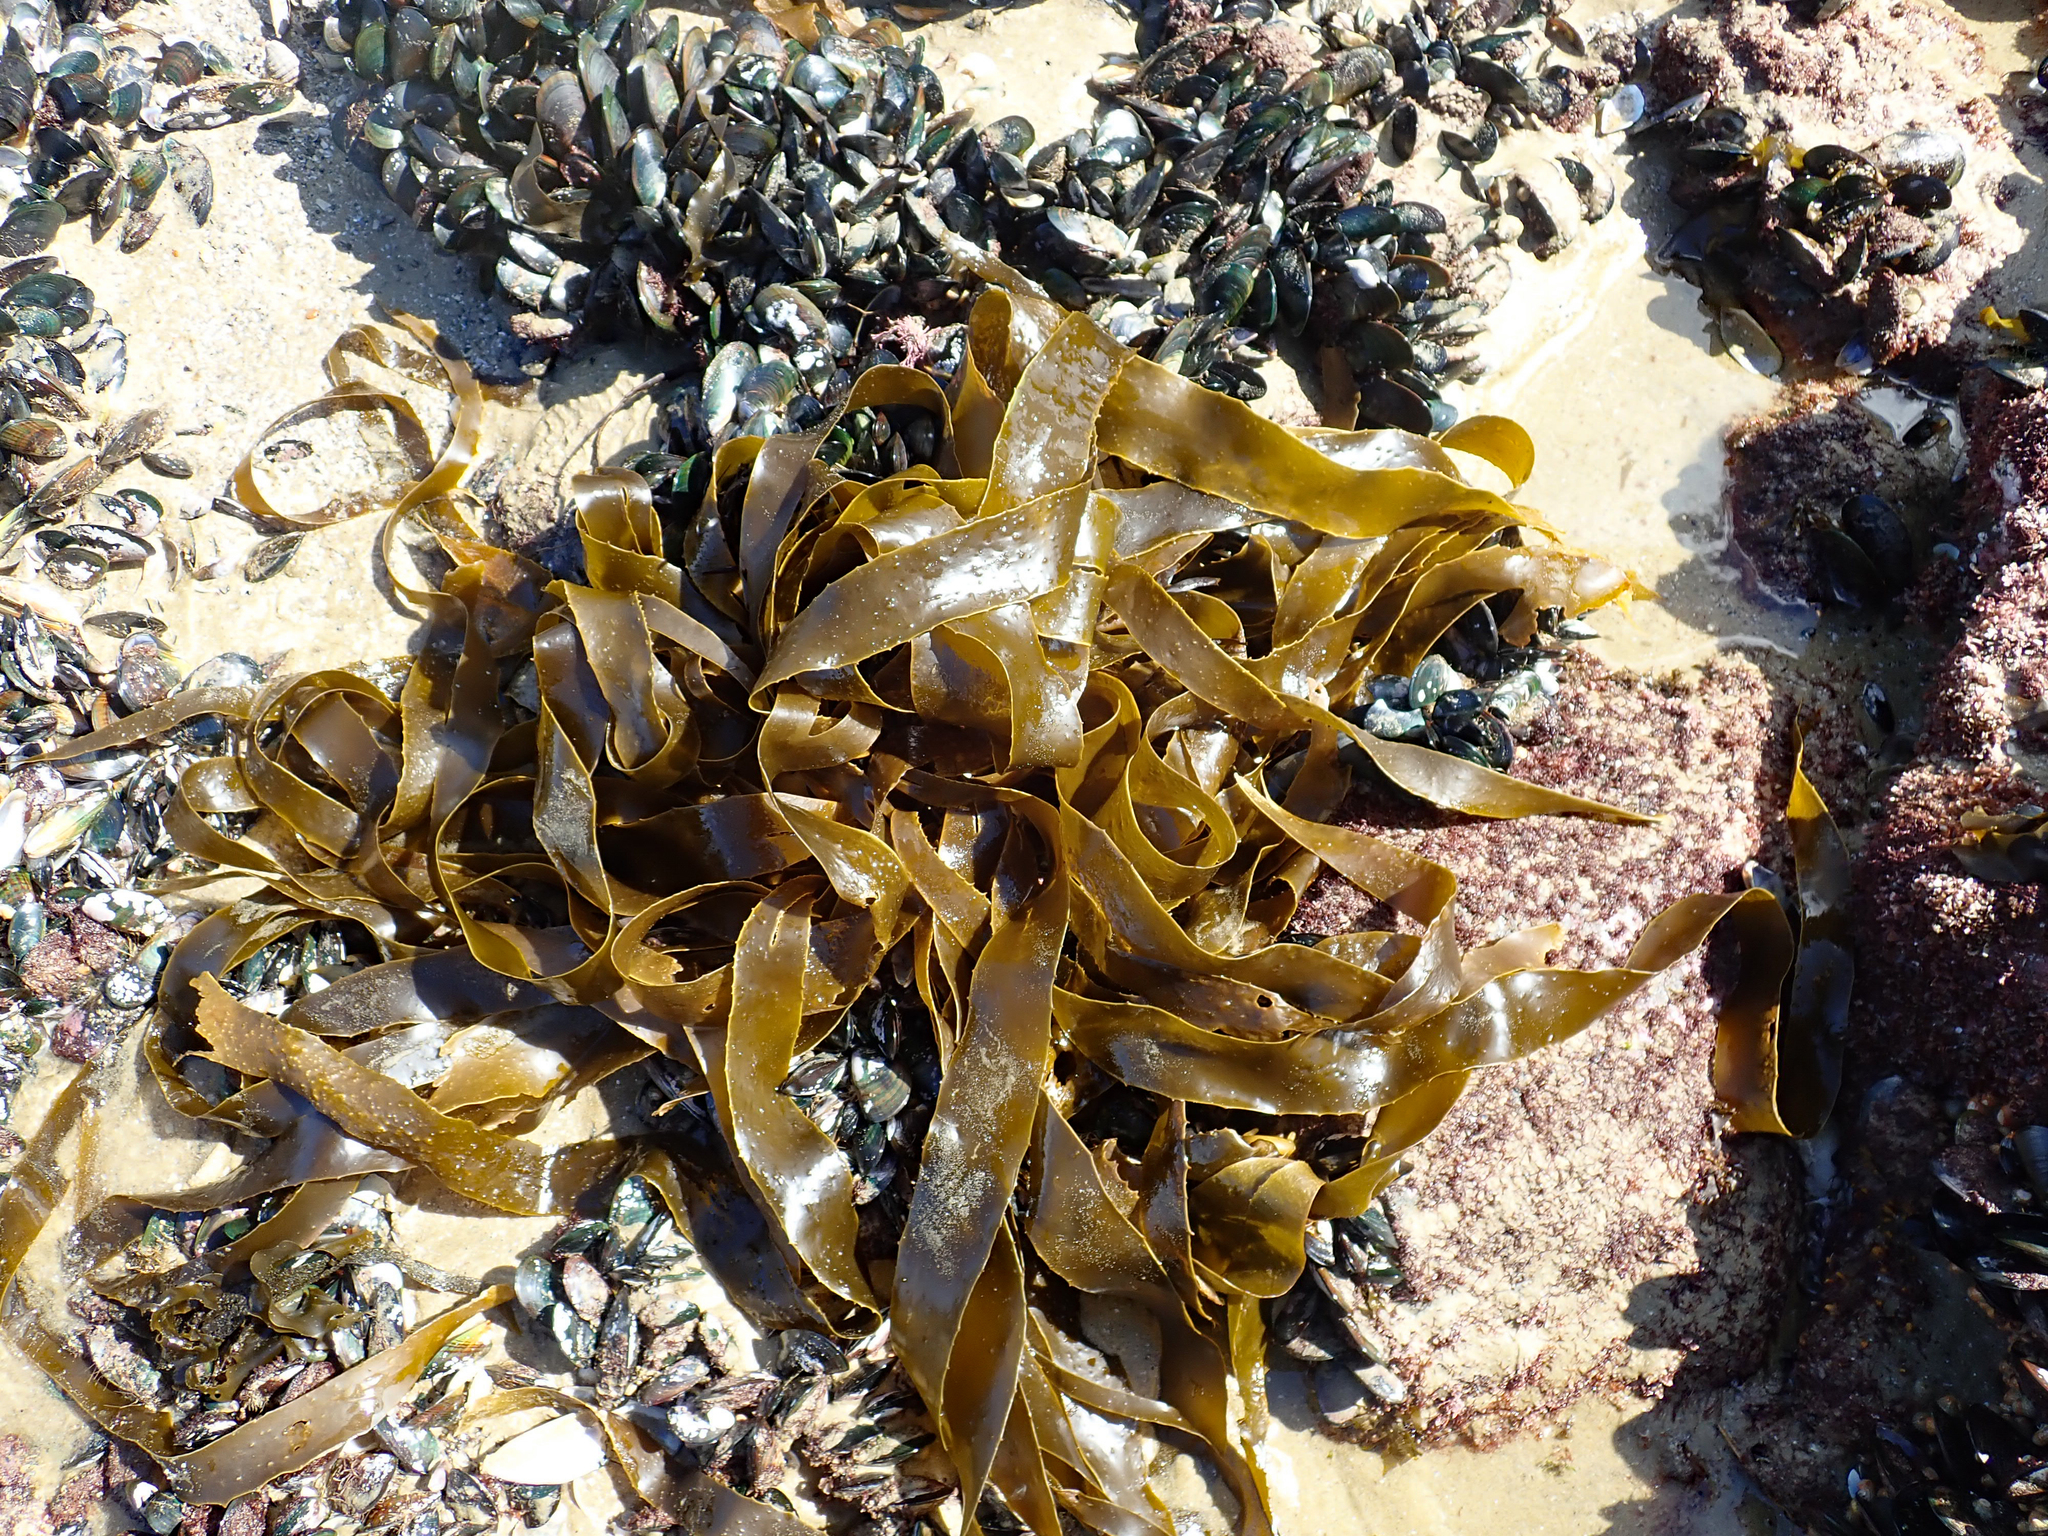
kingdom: Chromista
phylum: Ochrophyta
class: Phaeophyceae
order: Laminariales
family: Lessoniaceae
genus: Lessonia
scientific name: Lessonia
